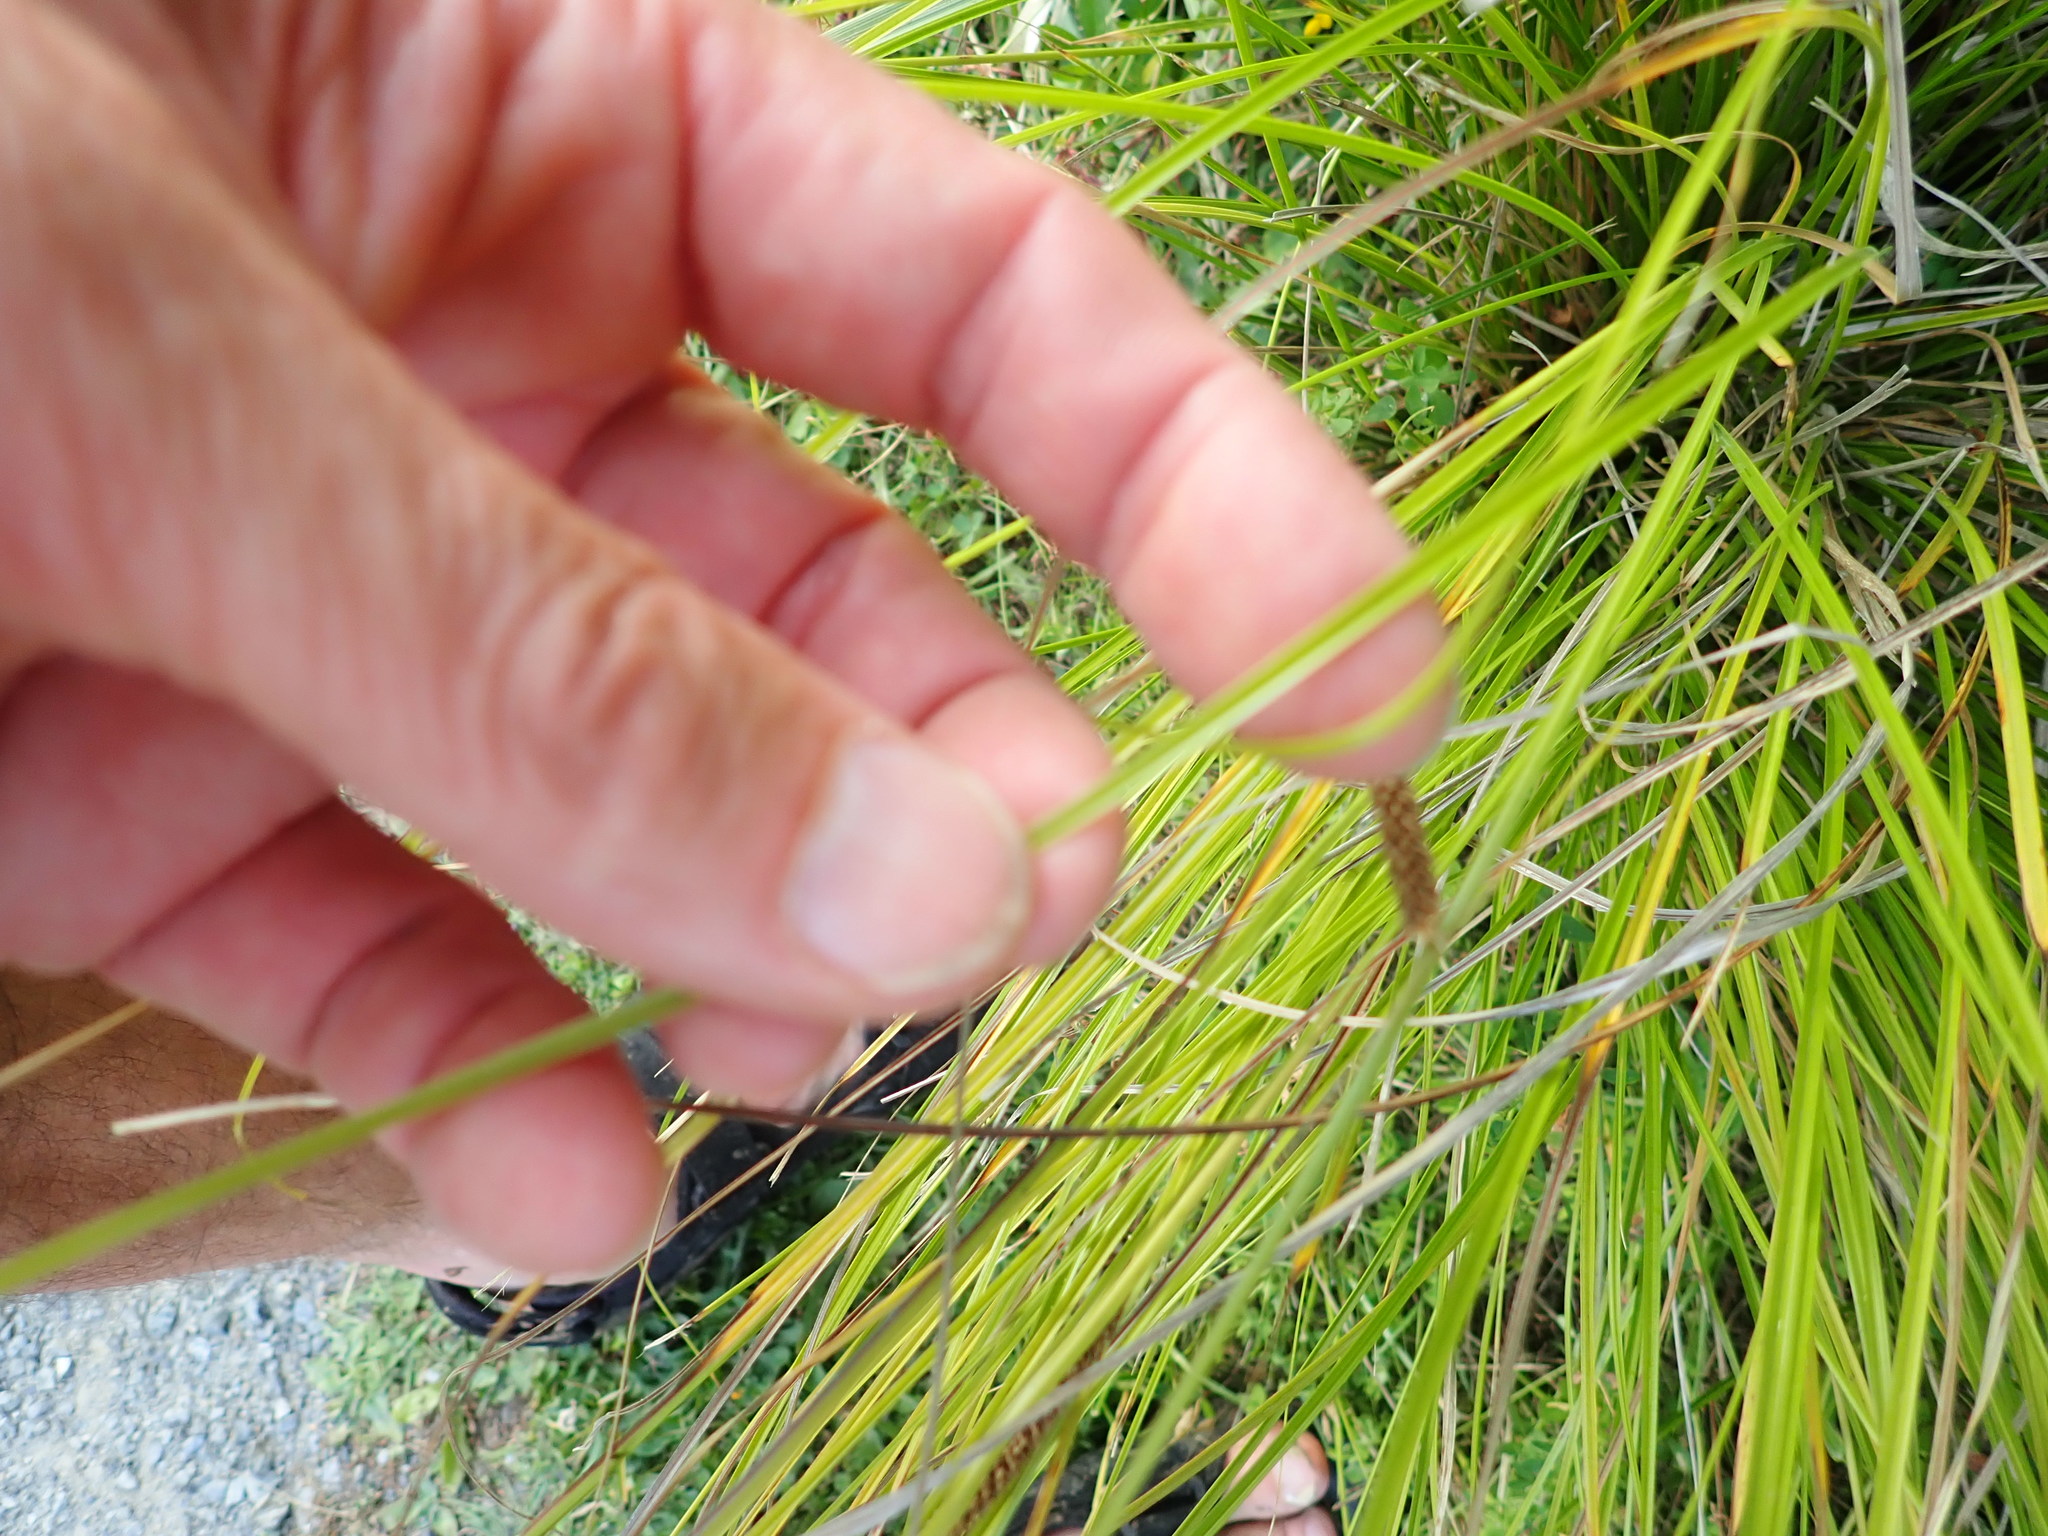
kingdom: Plantae
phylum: Tracheophyta
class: Liliopsida
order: Poales
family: Cyperaceae
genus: Carex
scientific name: Carex dipsacea
